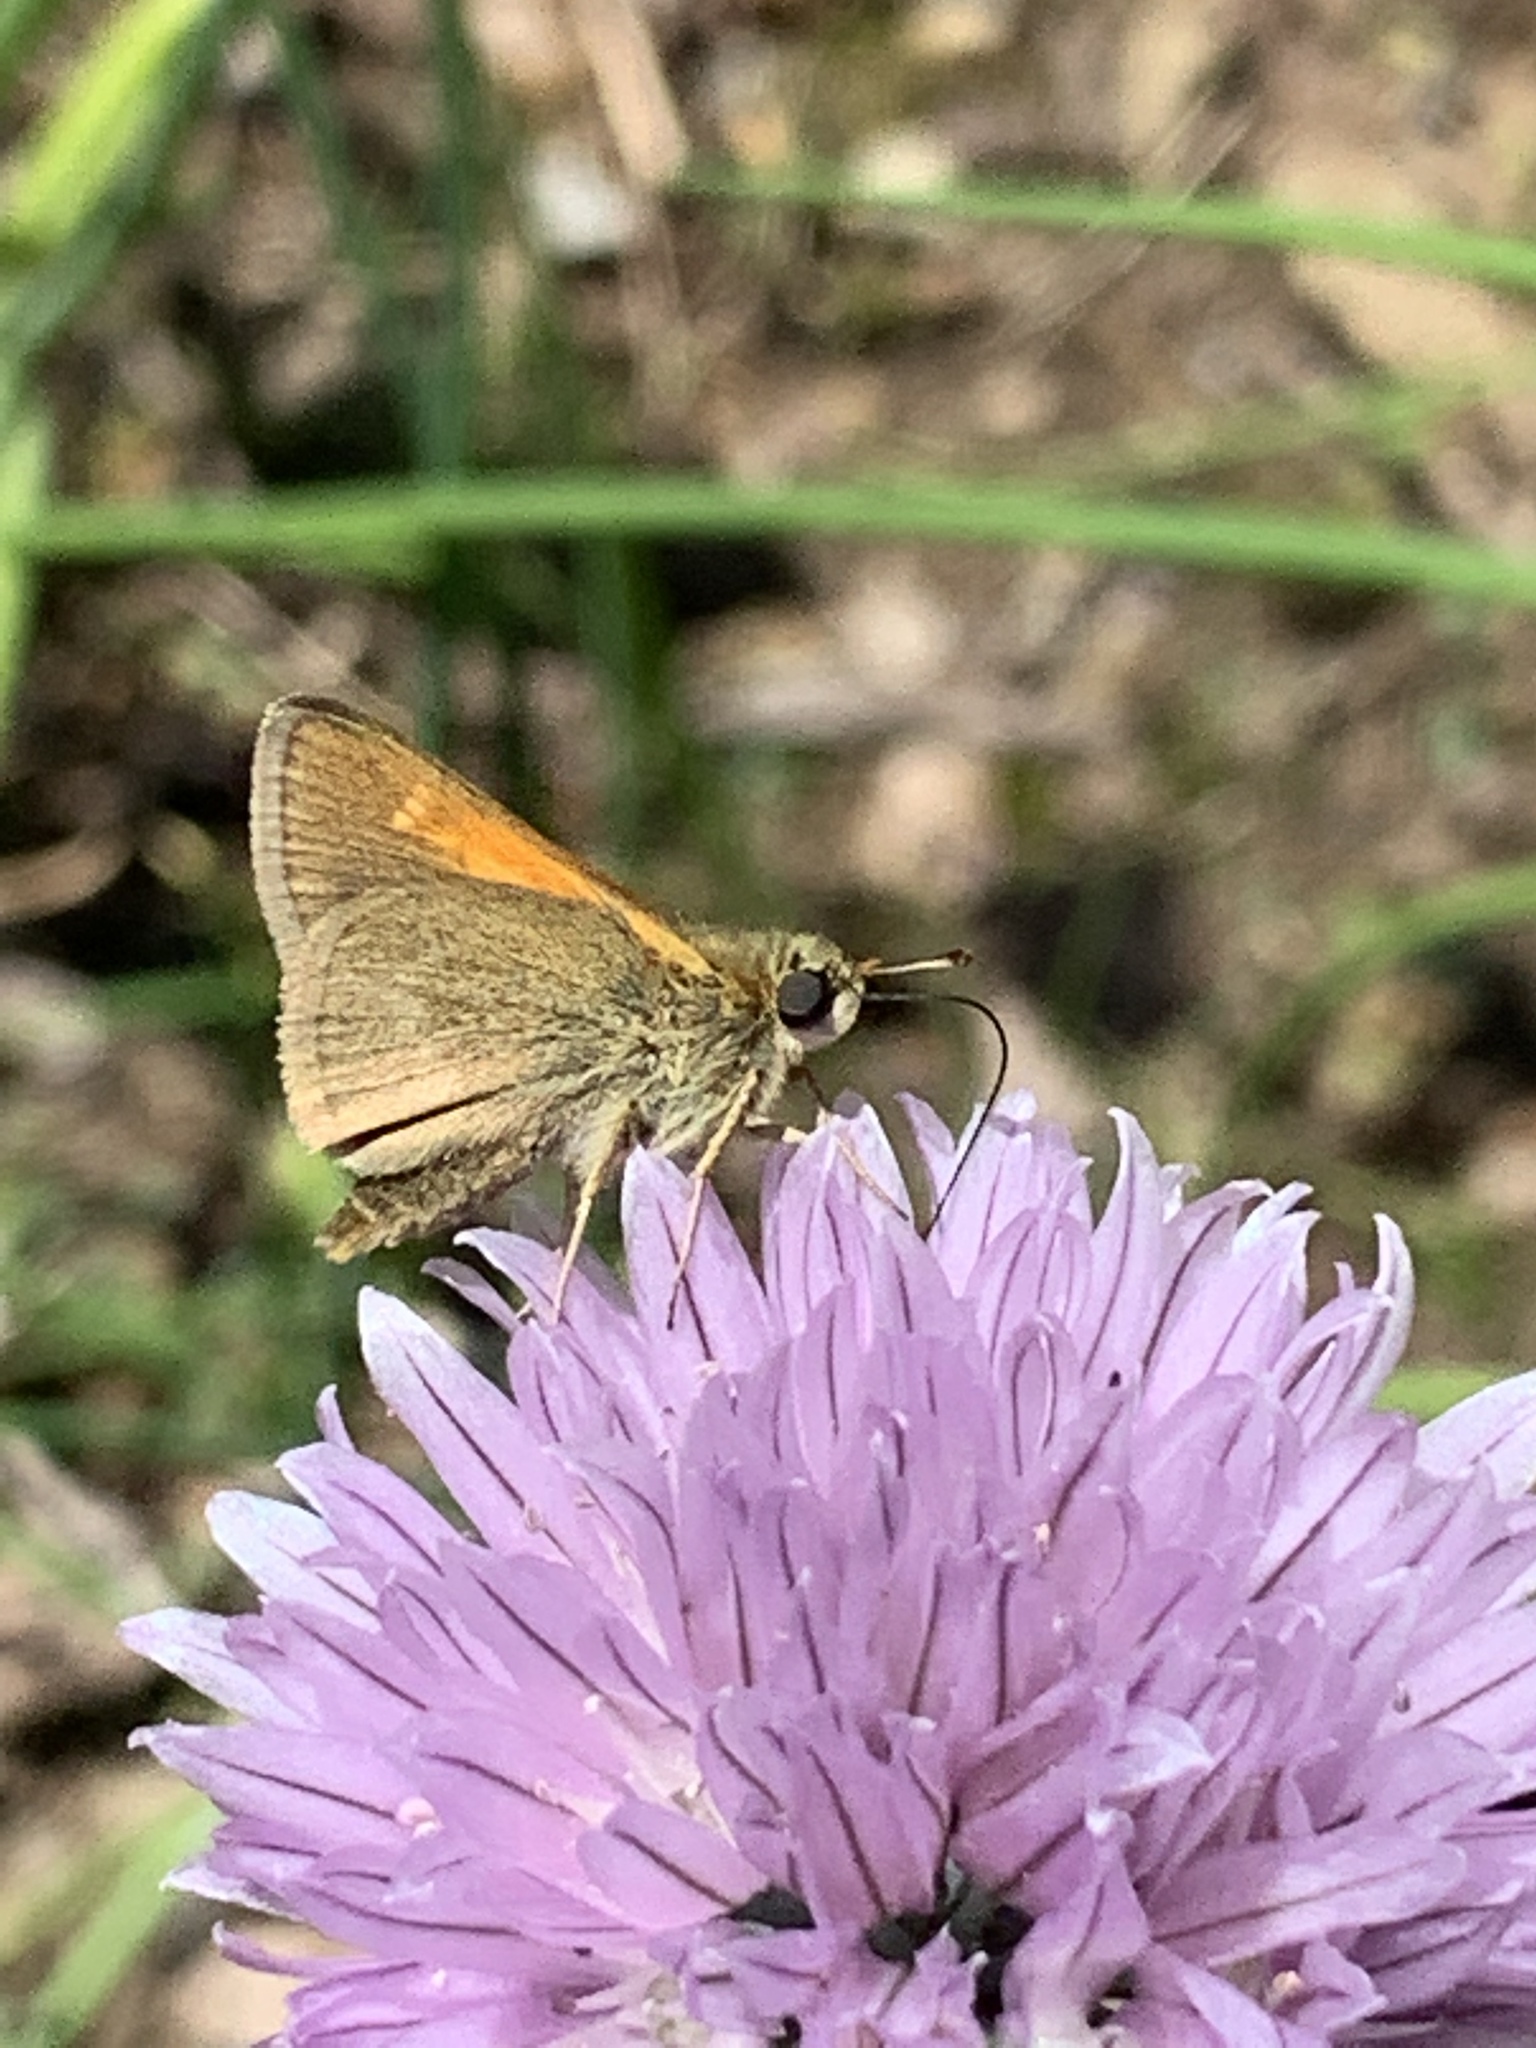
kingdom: Animalia
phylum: Arthropoda
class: Insecta
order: Lepidoptera
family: Hesperiidae
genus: Polites
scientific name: Polites themistocles
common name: Tawny-edged skipper
